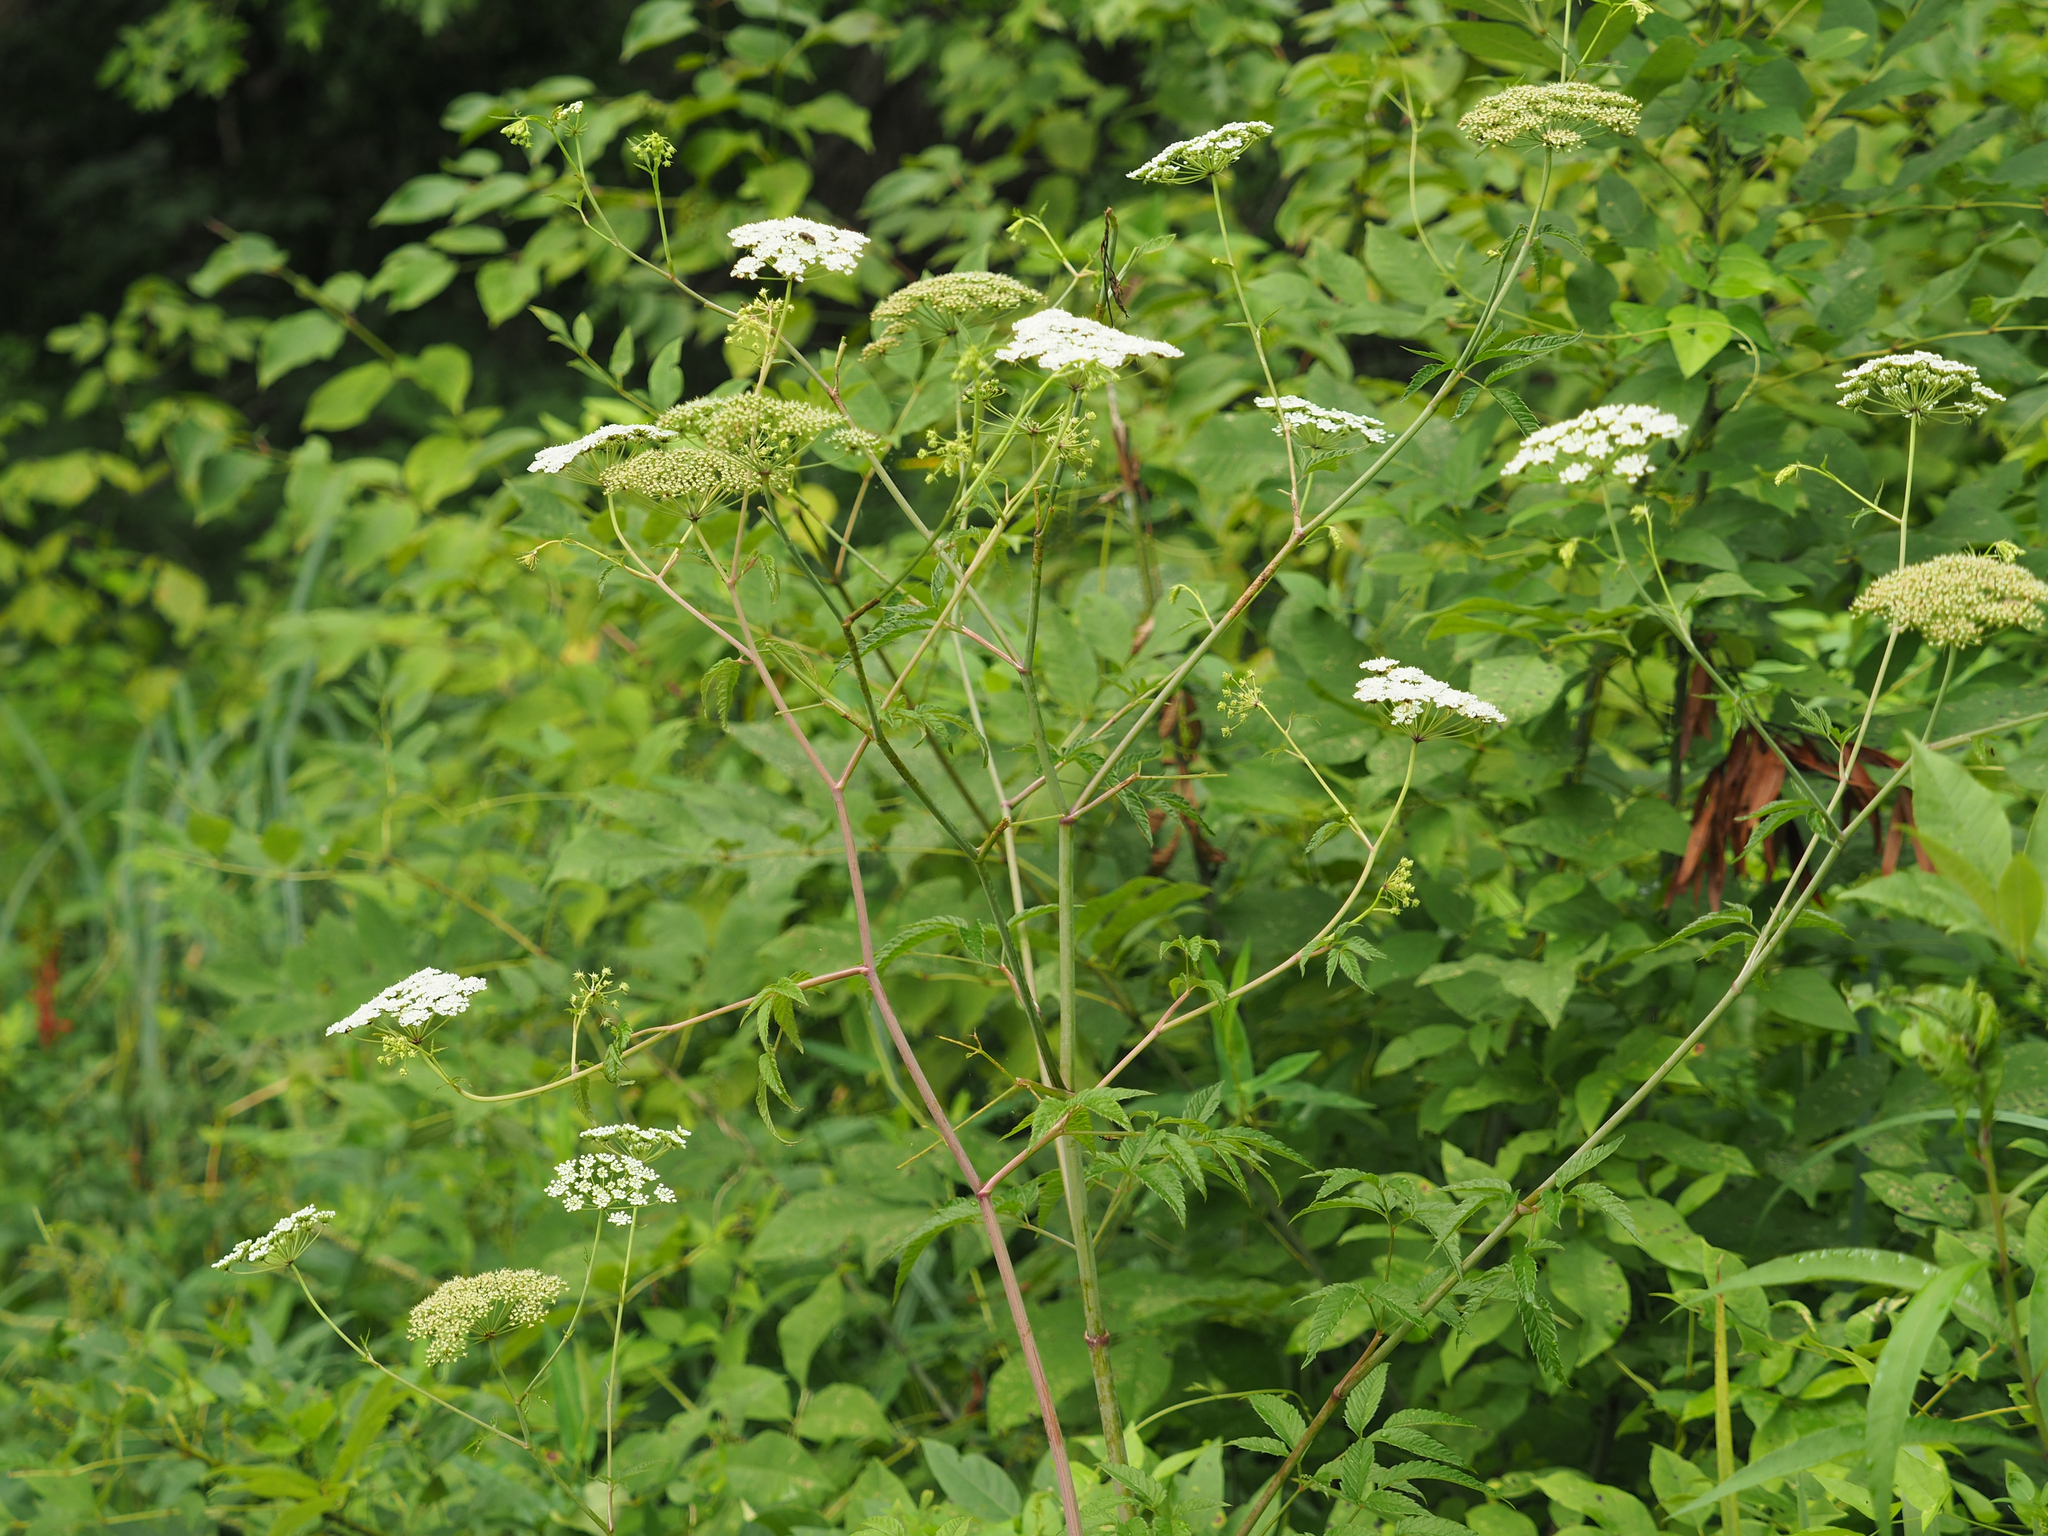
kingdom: Plantae
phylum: Tracheophyta
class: Magnoliopsida
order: Apiales
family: Apiaceae
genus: Cicuta
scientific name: Cicuta maculata
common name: Spotted cowbane
